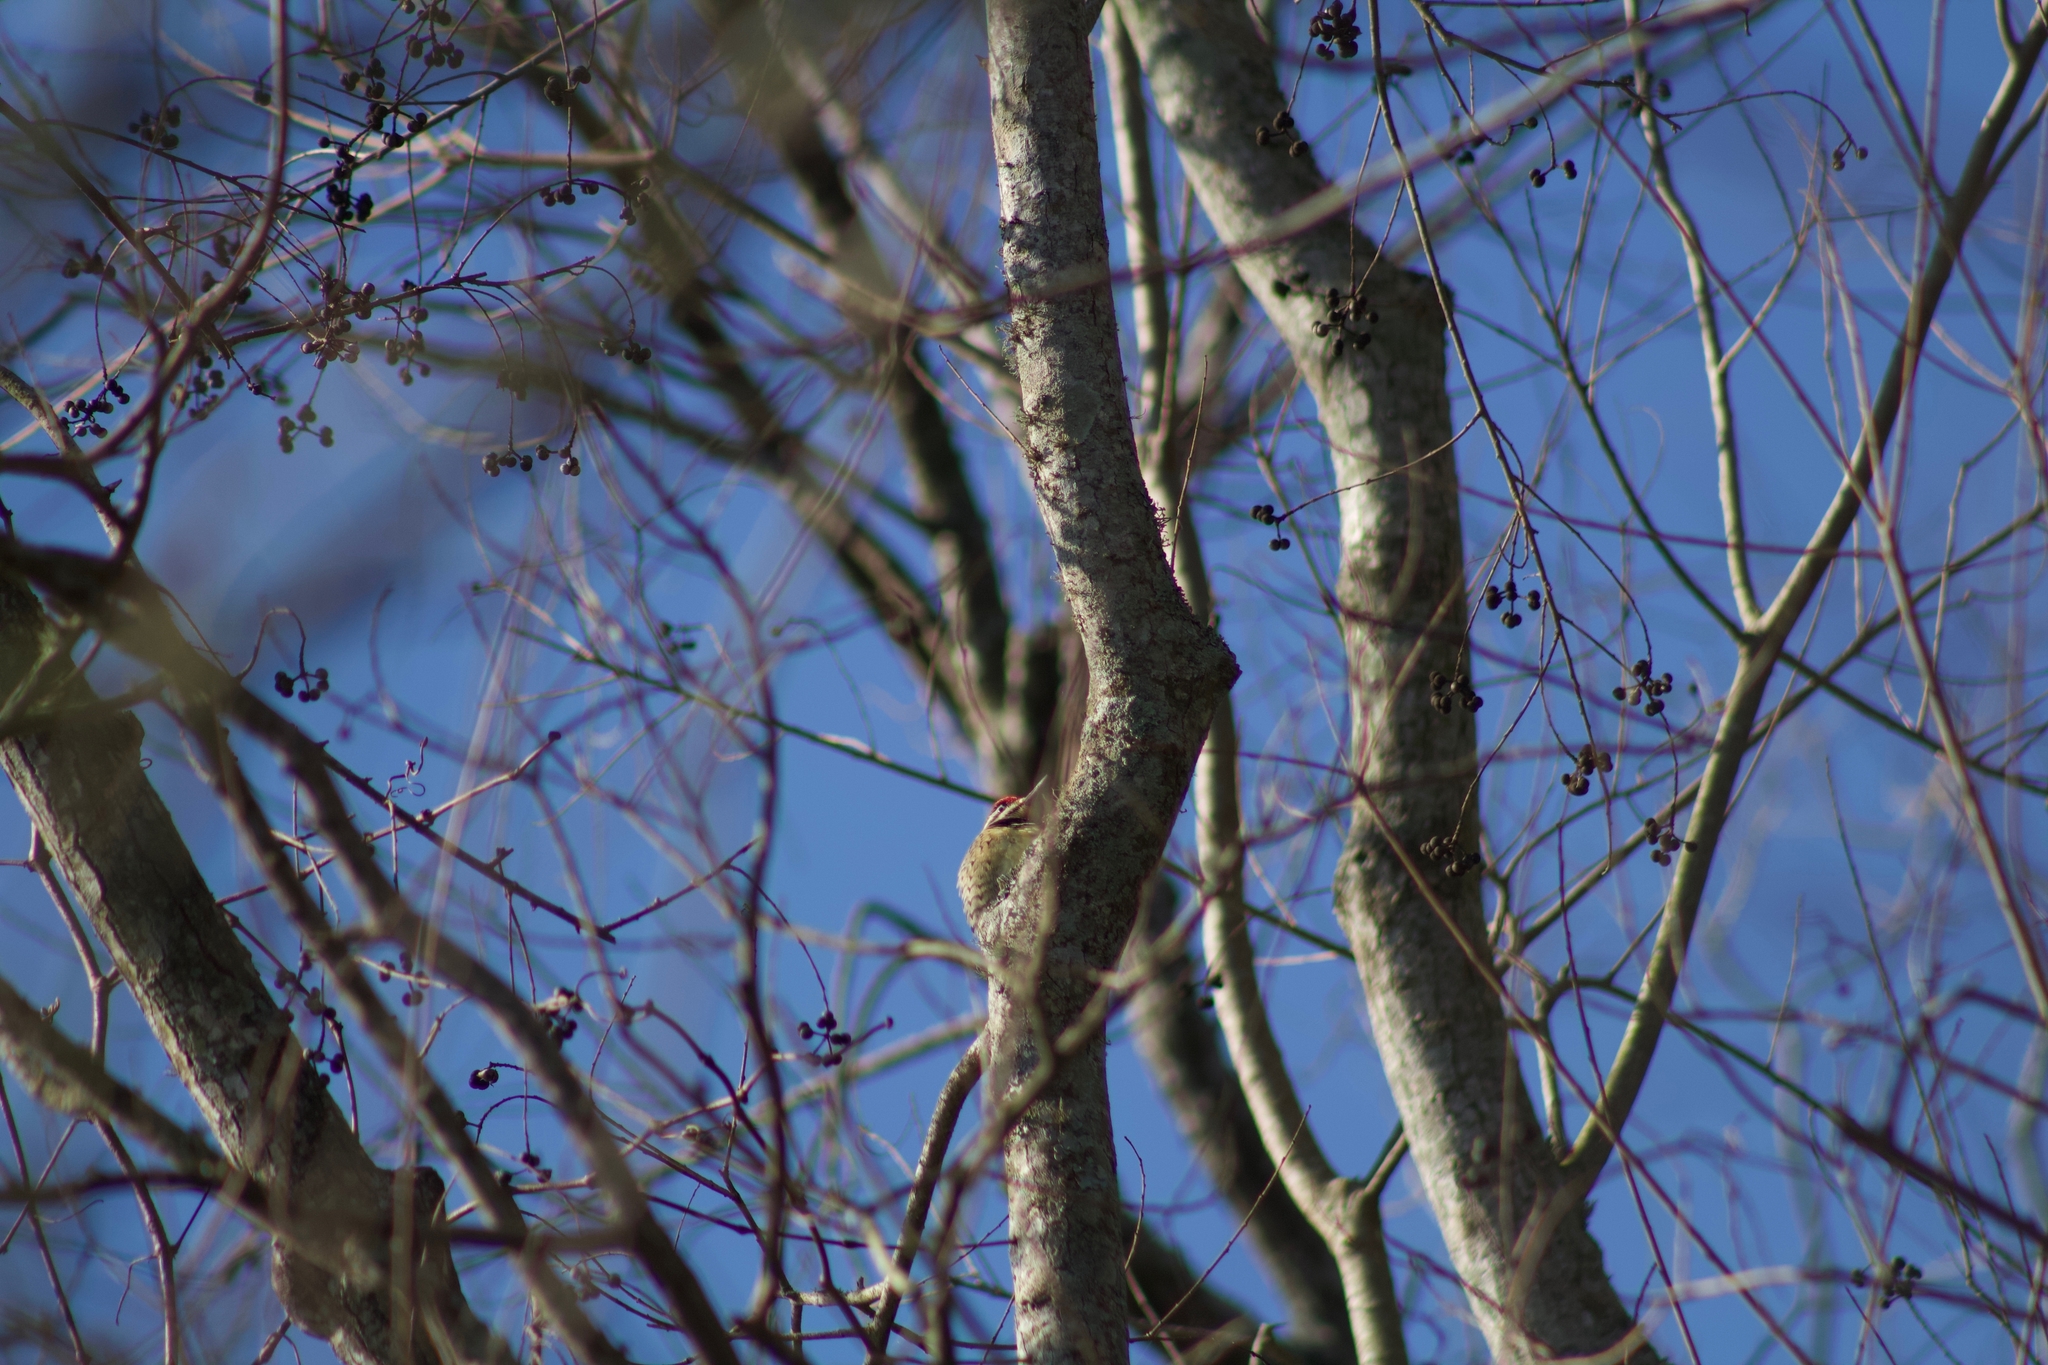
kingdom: Animalia
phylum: Chordata
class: Aves
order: Piciformes
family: Picidae
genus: Sphyrapicus
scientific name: Sphyrapicus varius
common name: Yellow-bellied sapsucker
